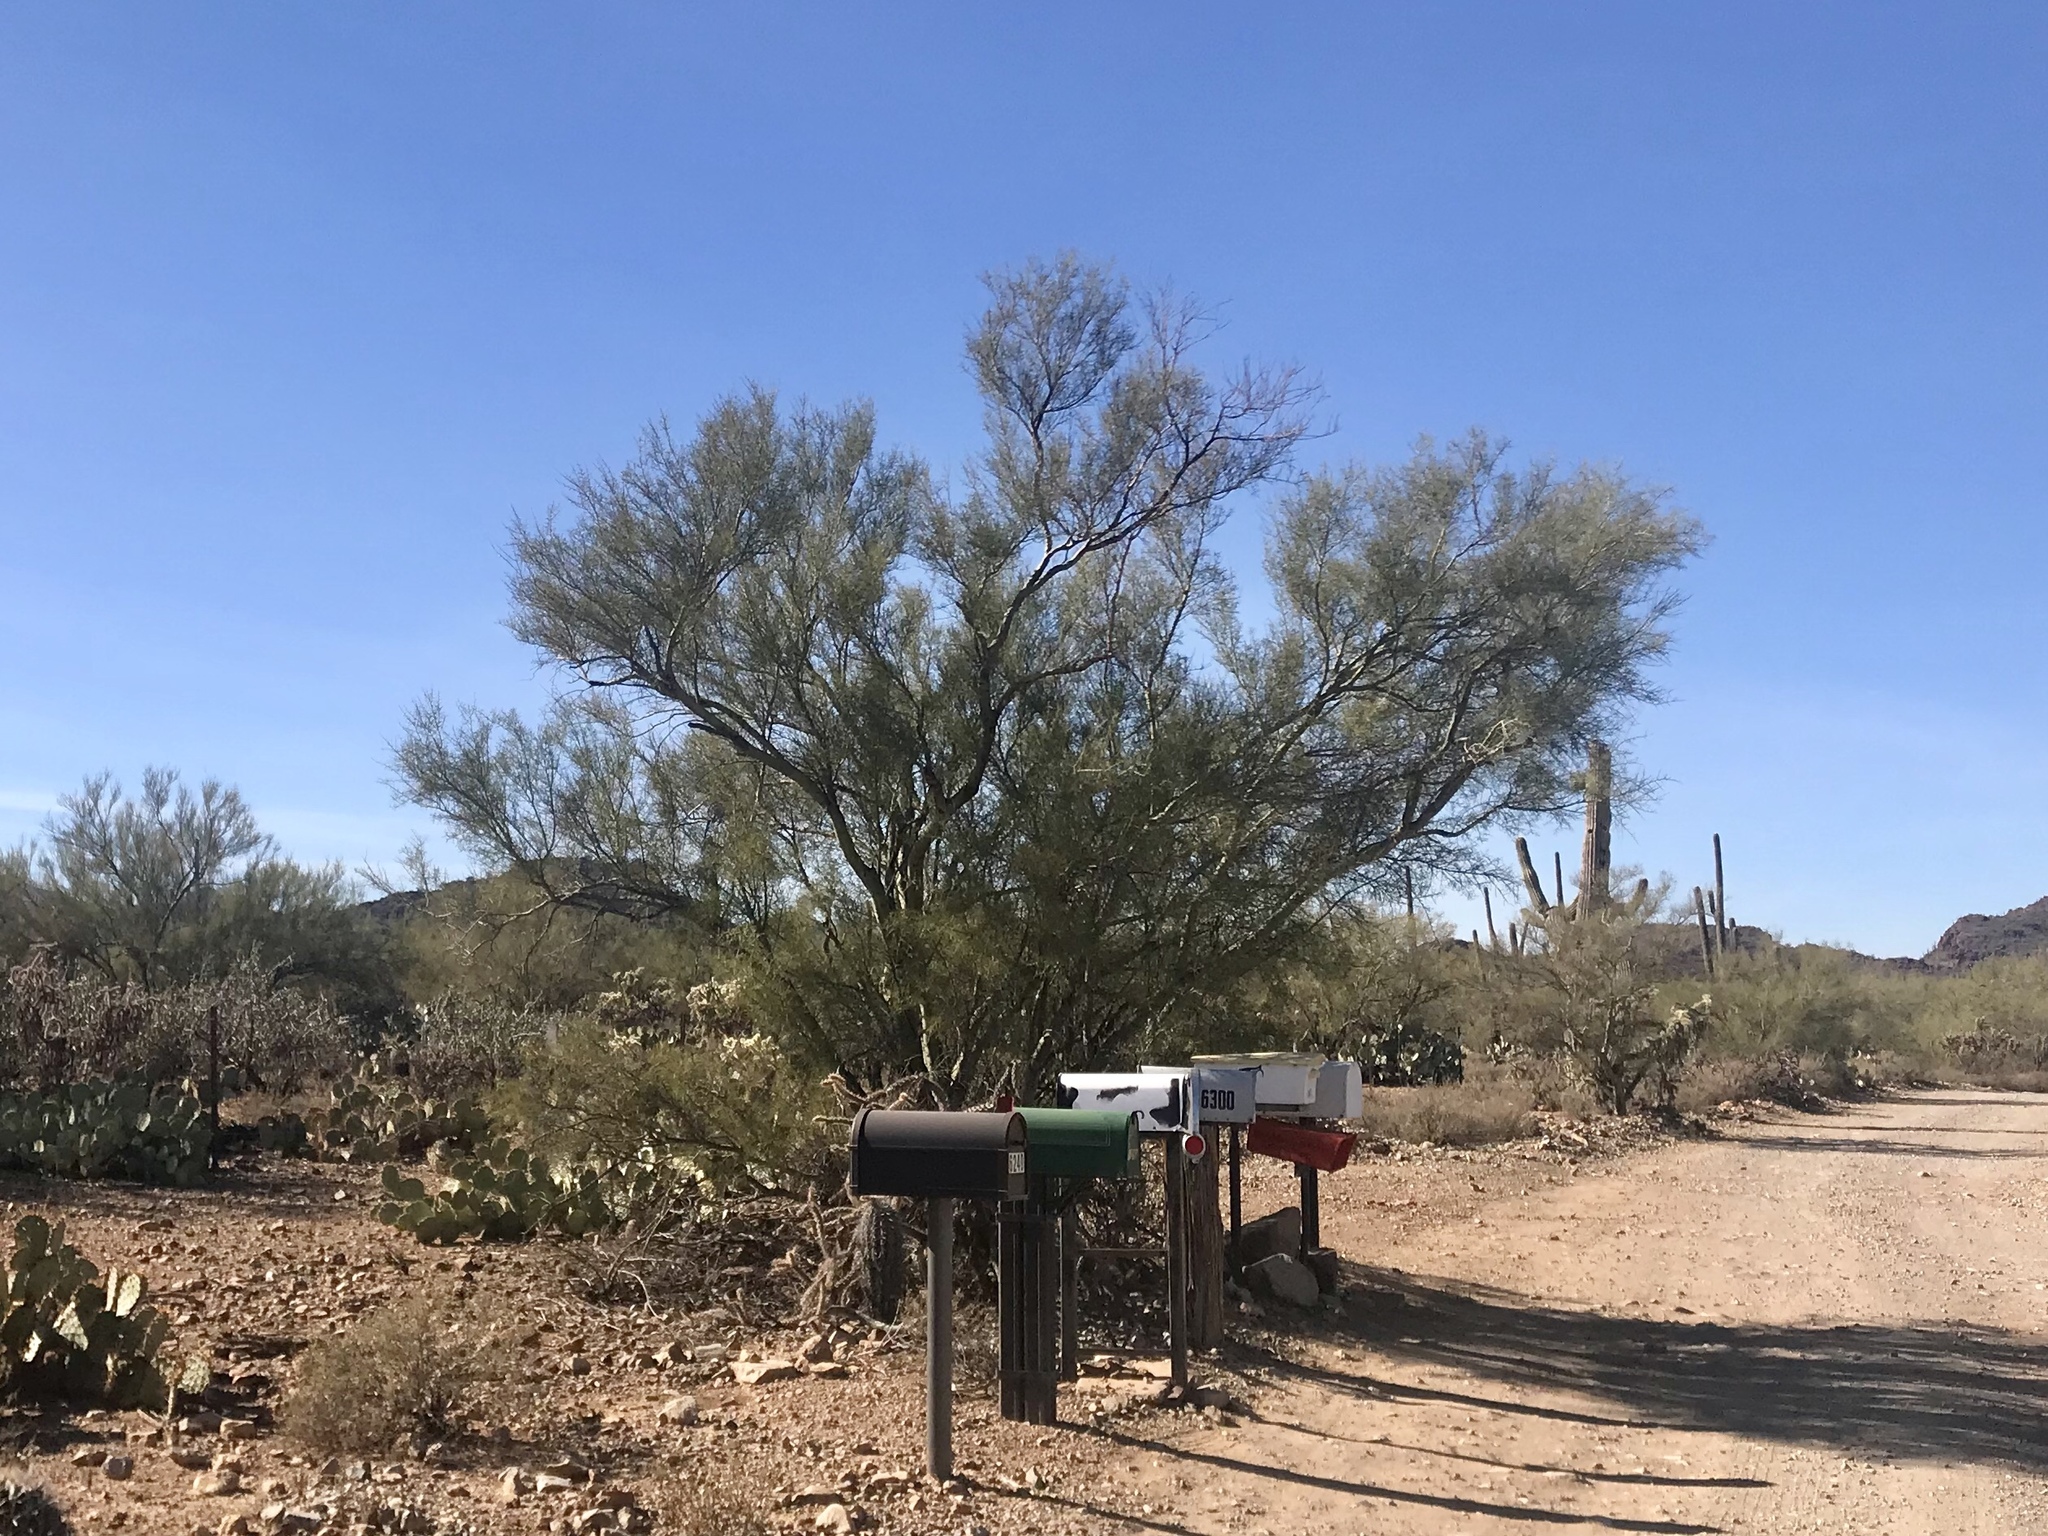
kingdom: Plantae
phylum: Tracheophyta
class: Magnoliopsida
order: Fabales
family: Fabaceae
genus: Parkinsonia
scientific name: Parkinsonia microphylla
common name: Yellow paloverde
